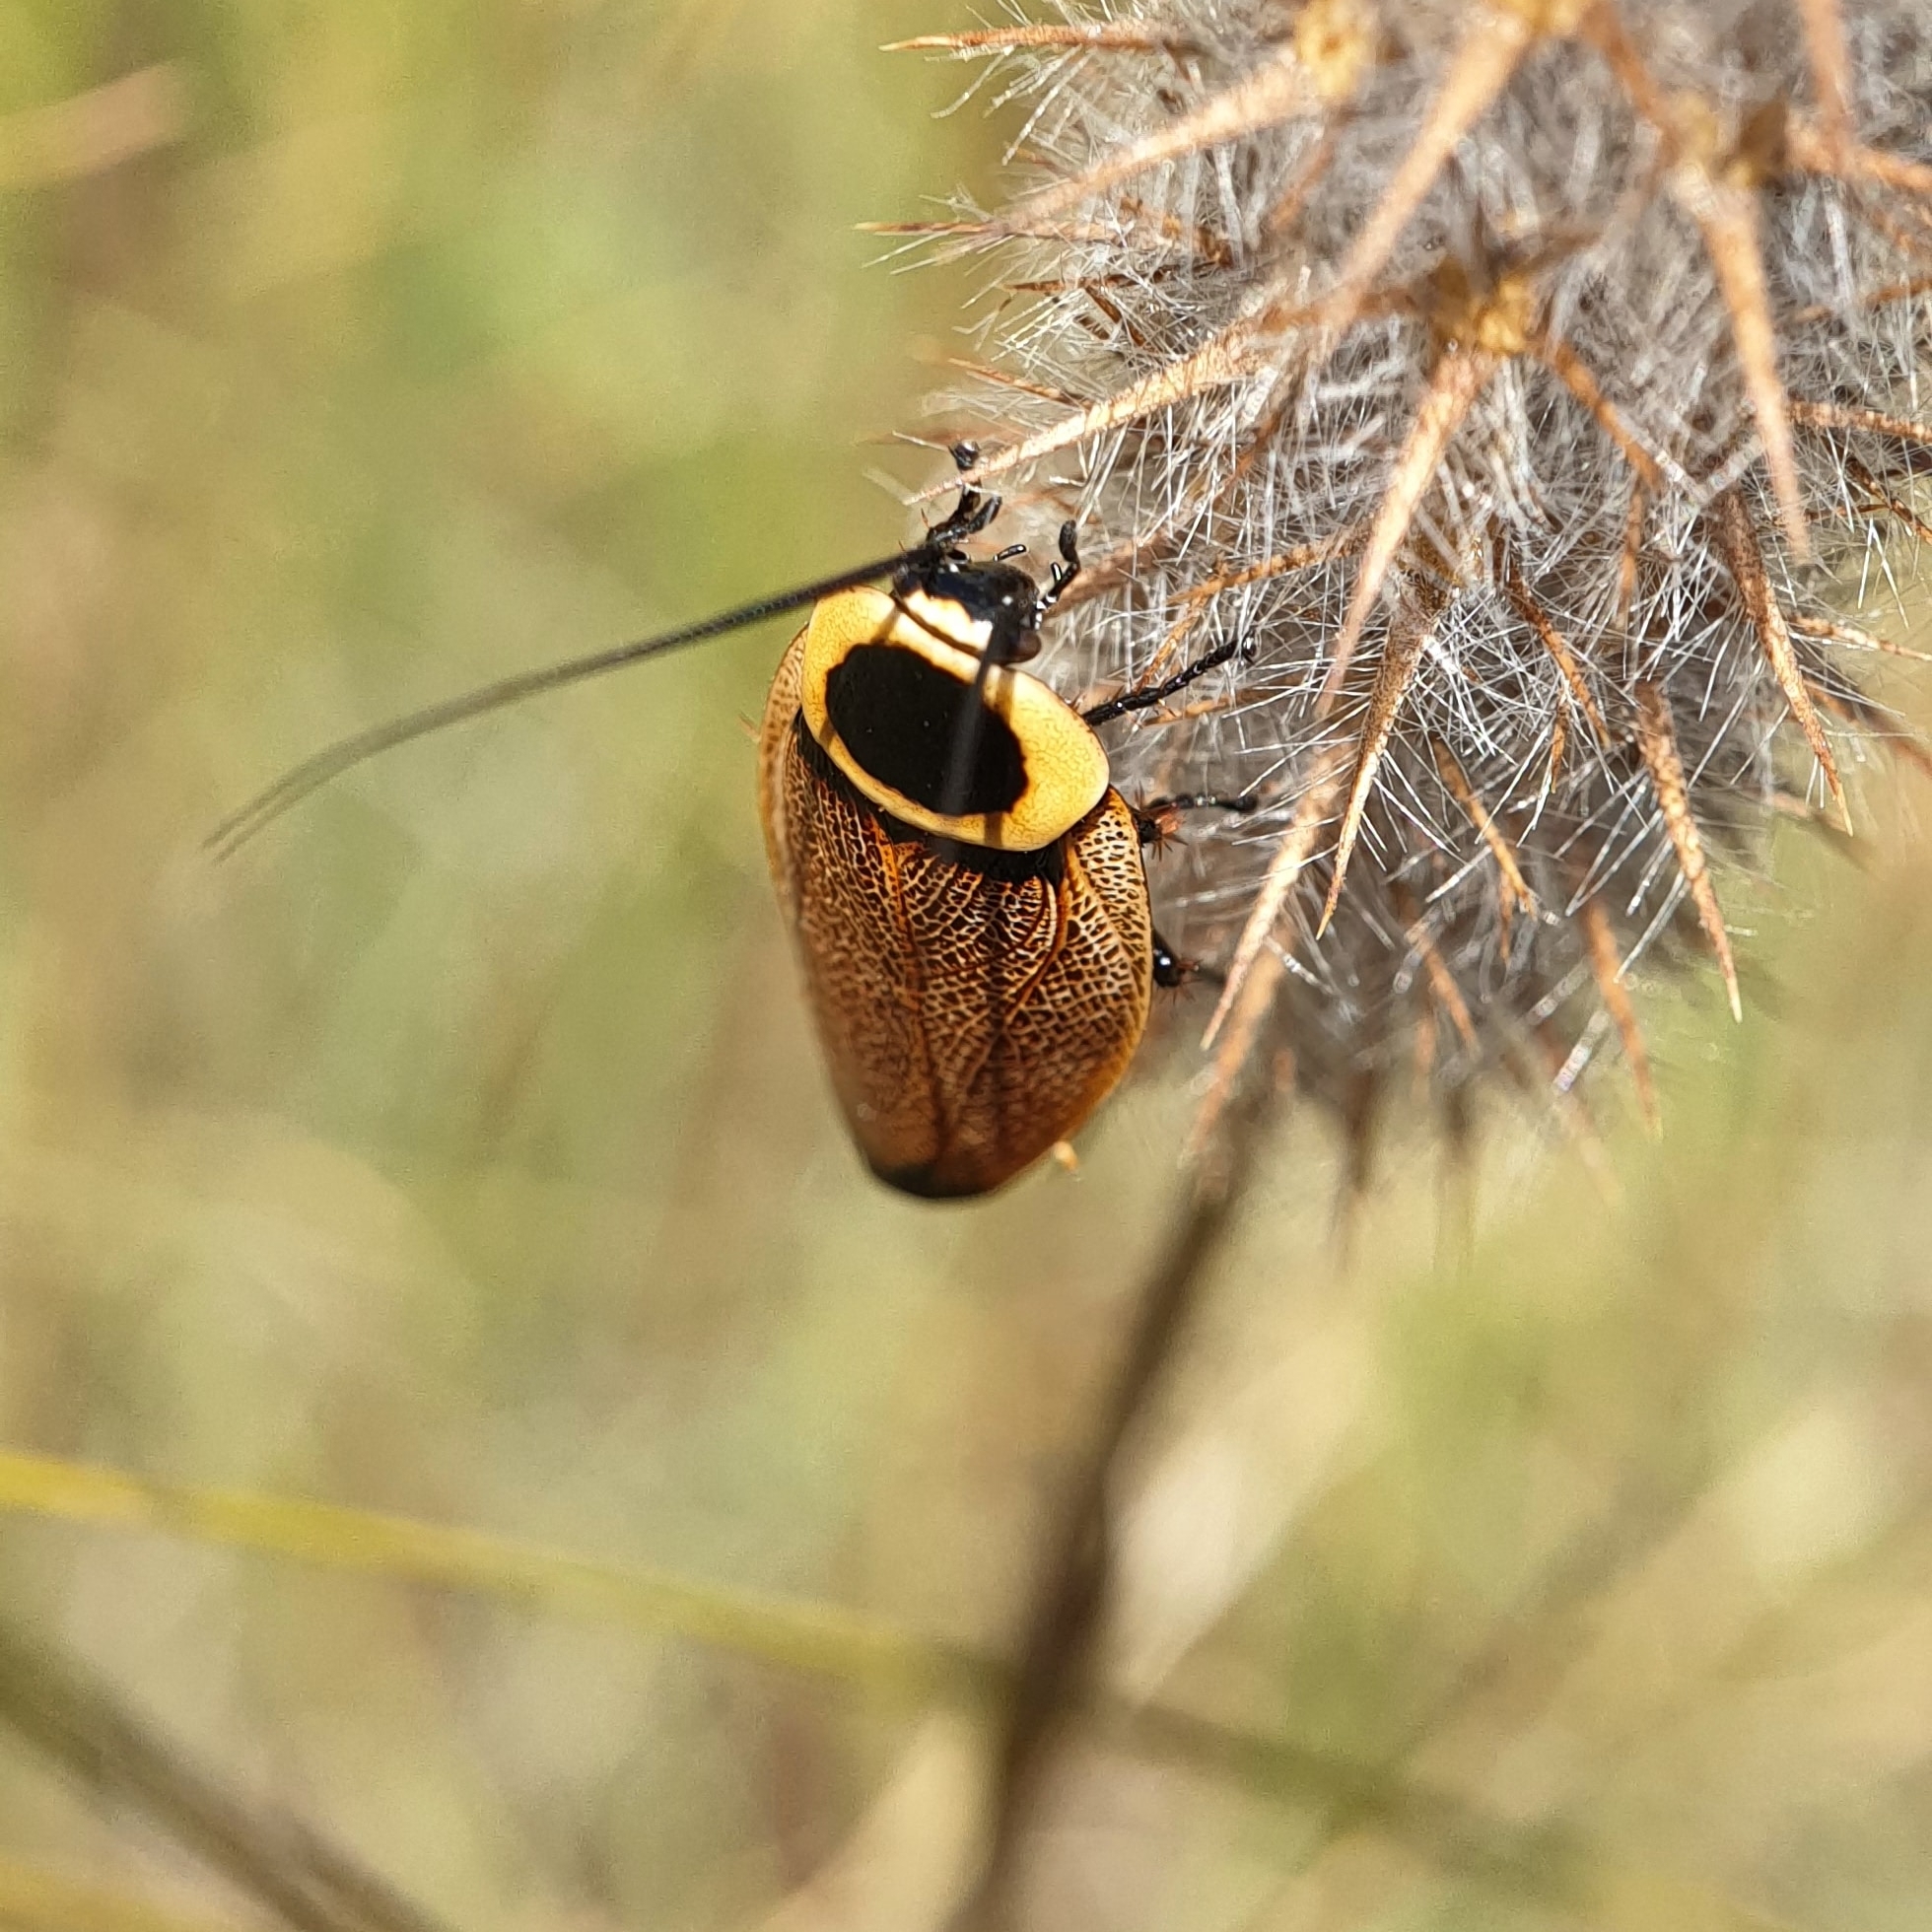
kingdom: Animalia
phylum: Arthropoda
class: Insecta
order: Blattodea
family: Ectobiidae
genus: Ellipsidion
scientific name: Ellipsidion australe
